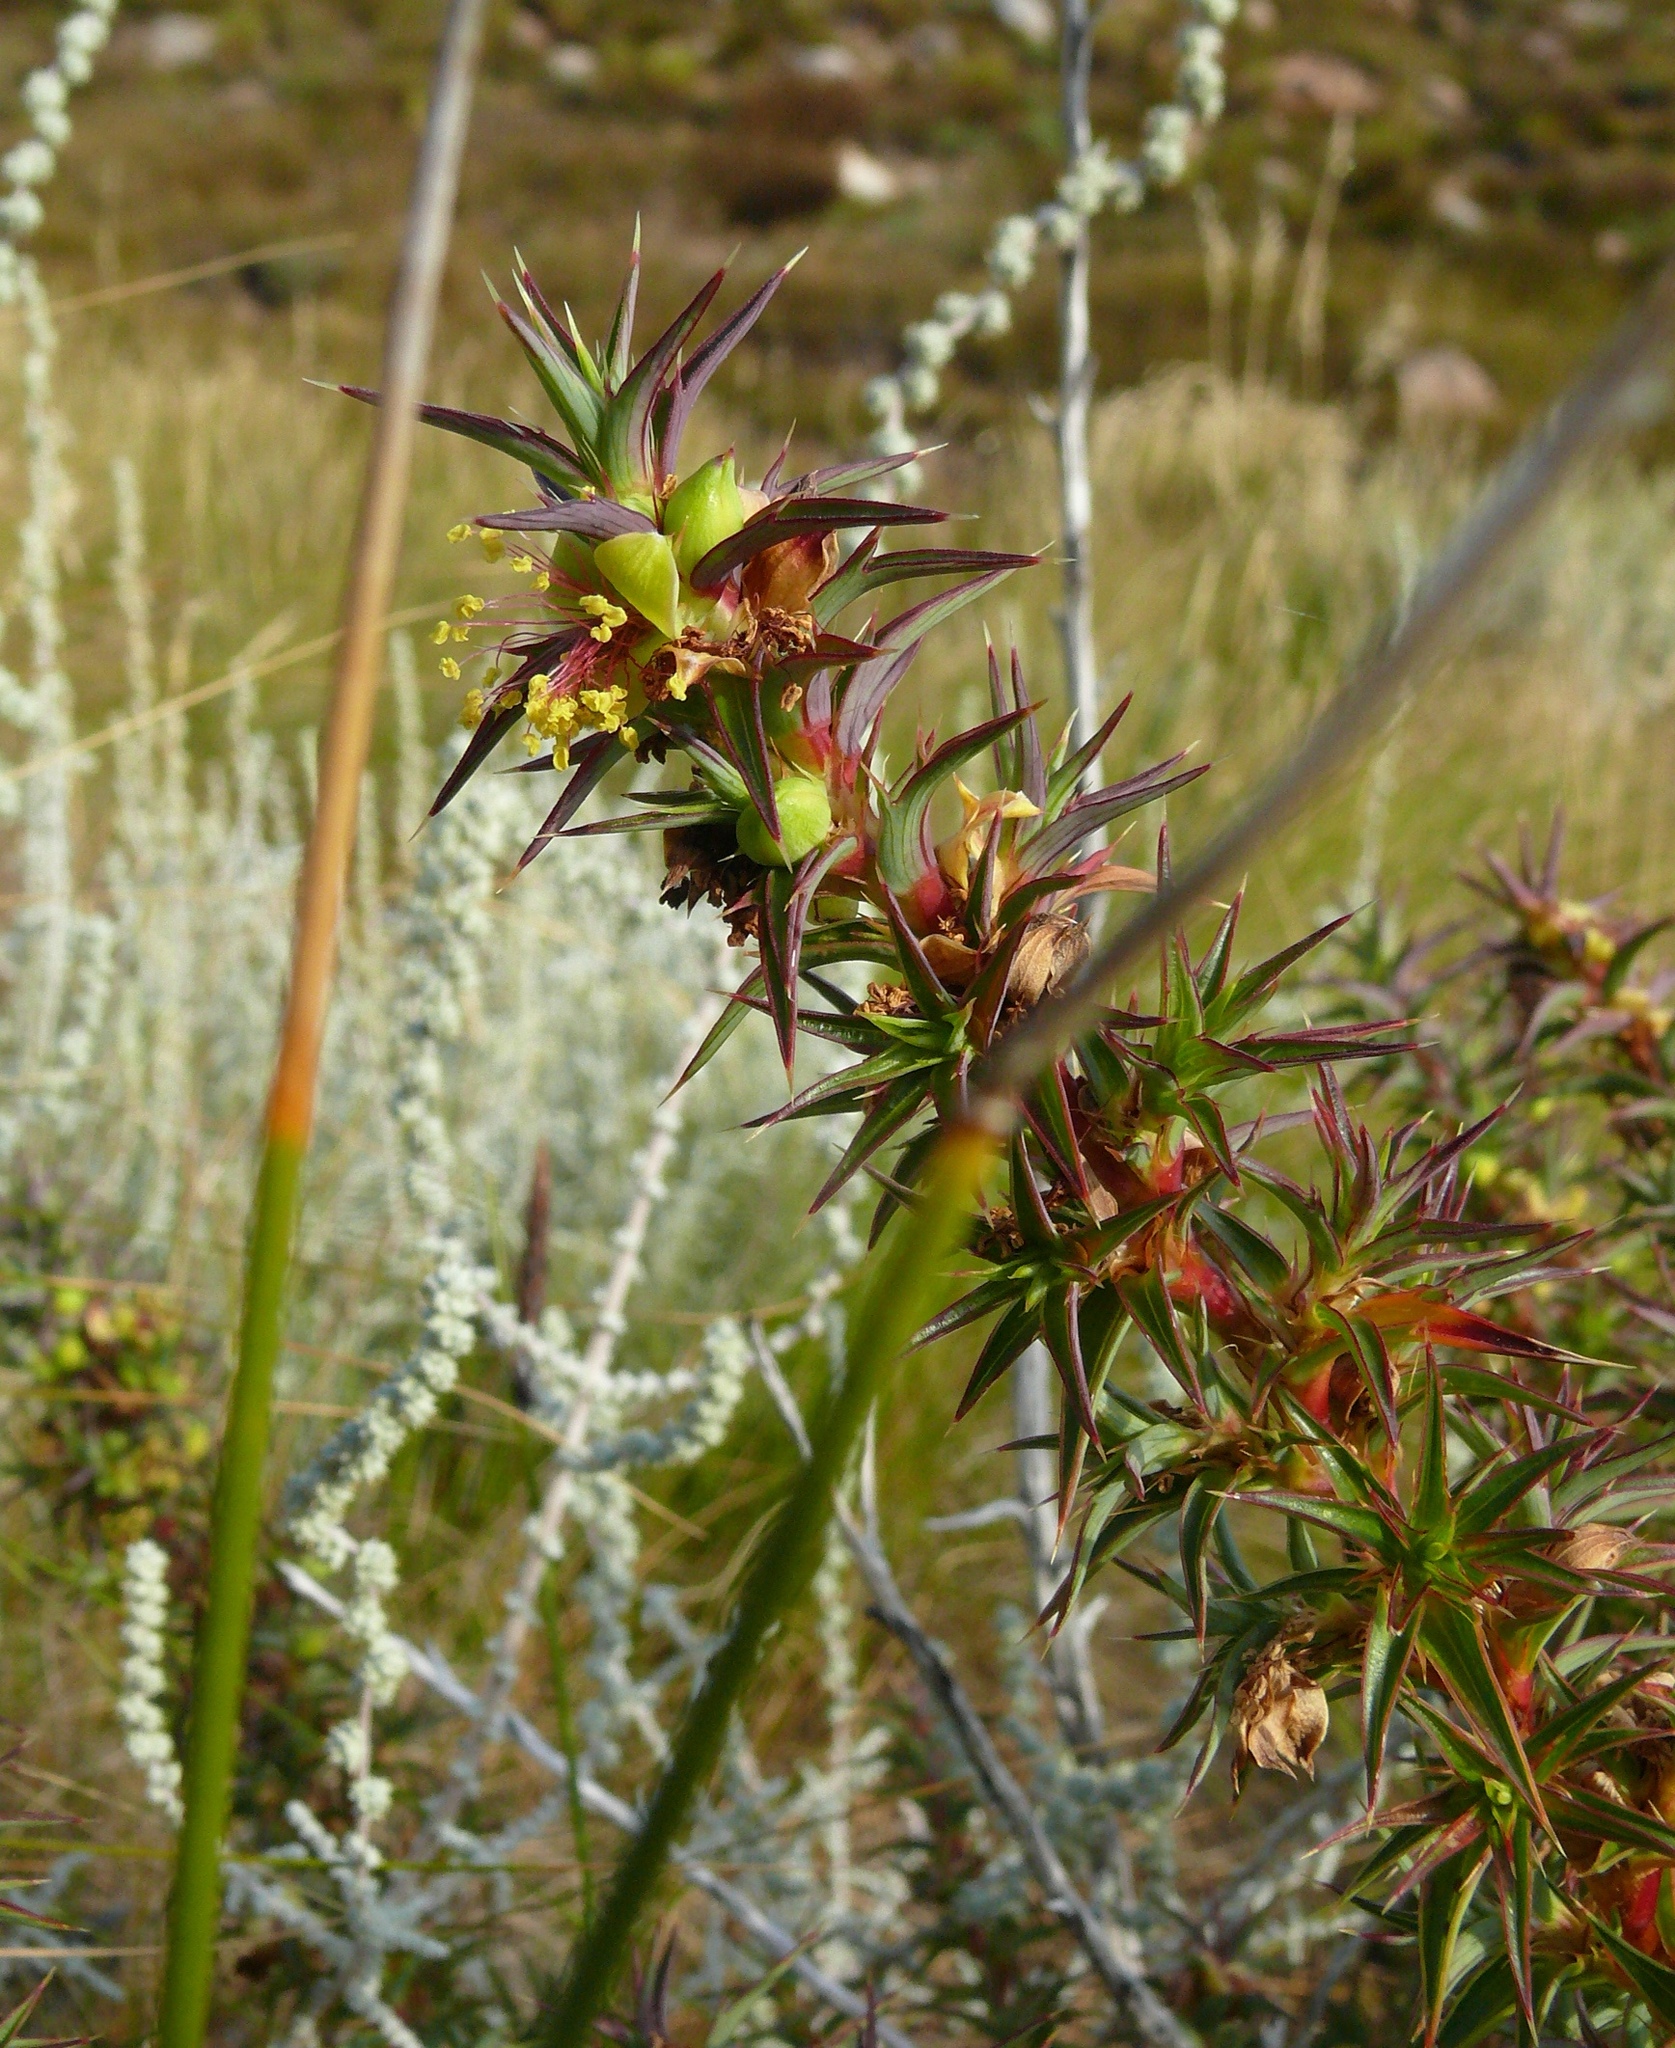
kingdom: Plantae
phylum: Tracheophyta
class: Magnoliopsida
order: Rosales
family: Rosaceae
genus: Cliffortia
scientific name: Cliffortia acanthophylla
